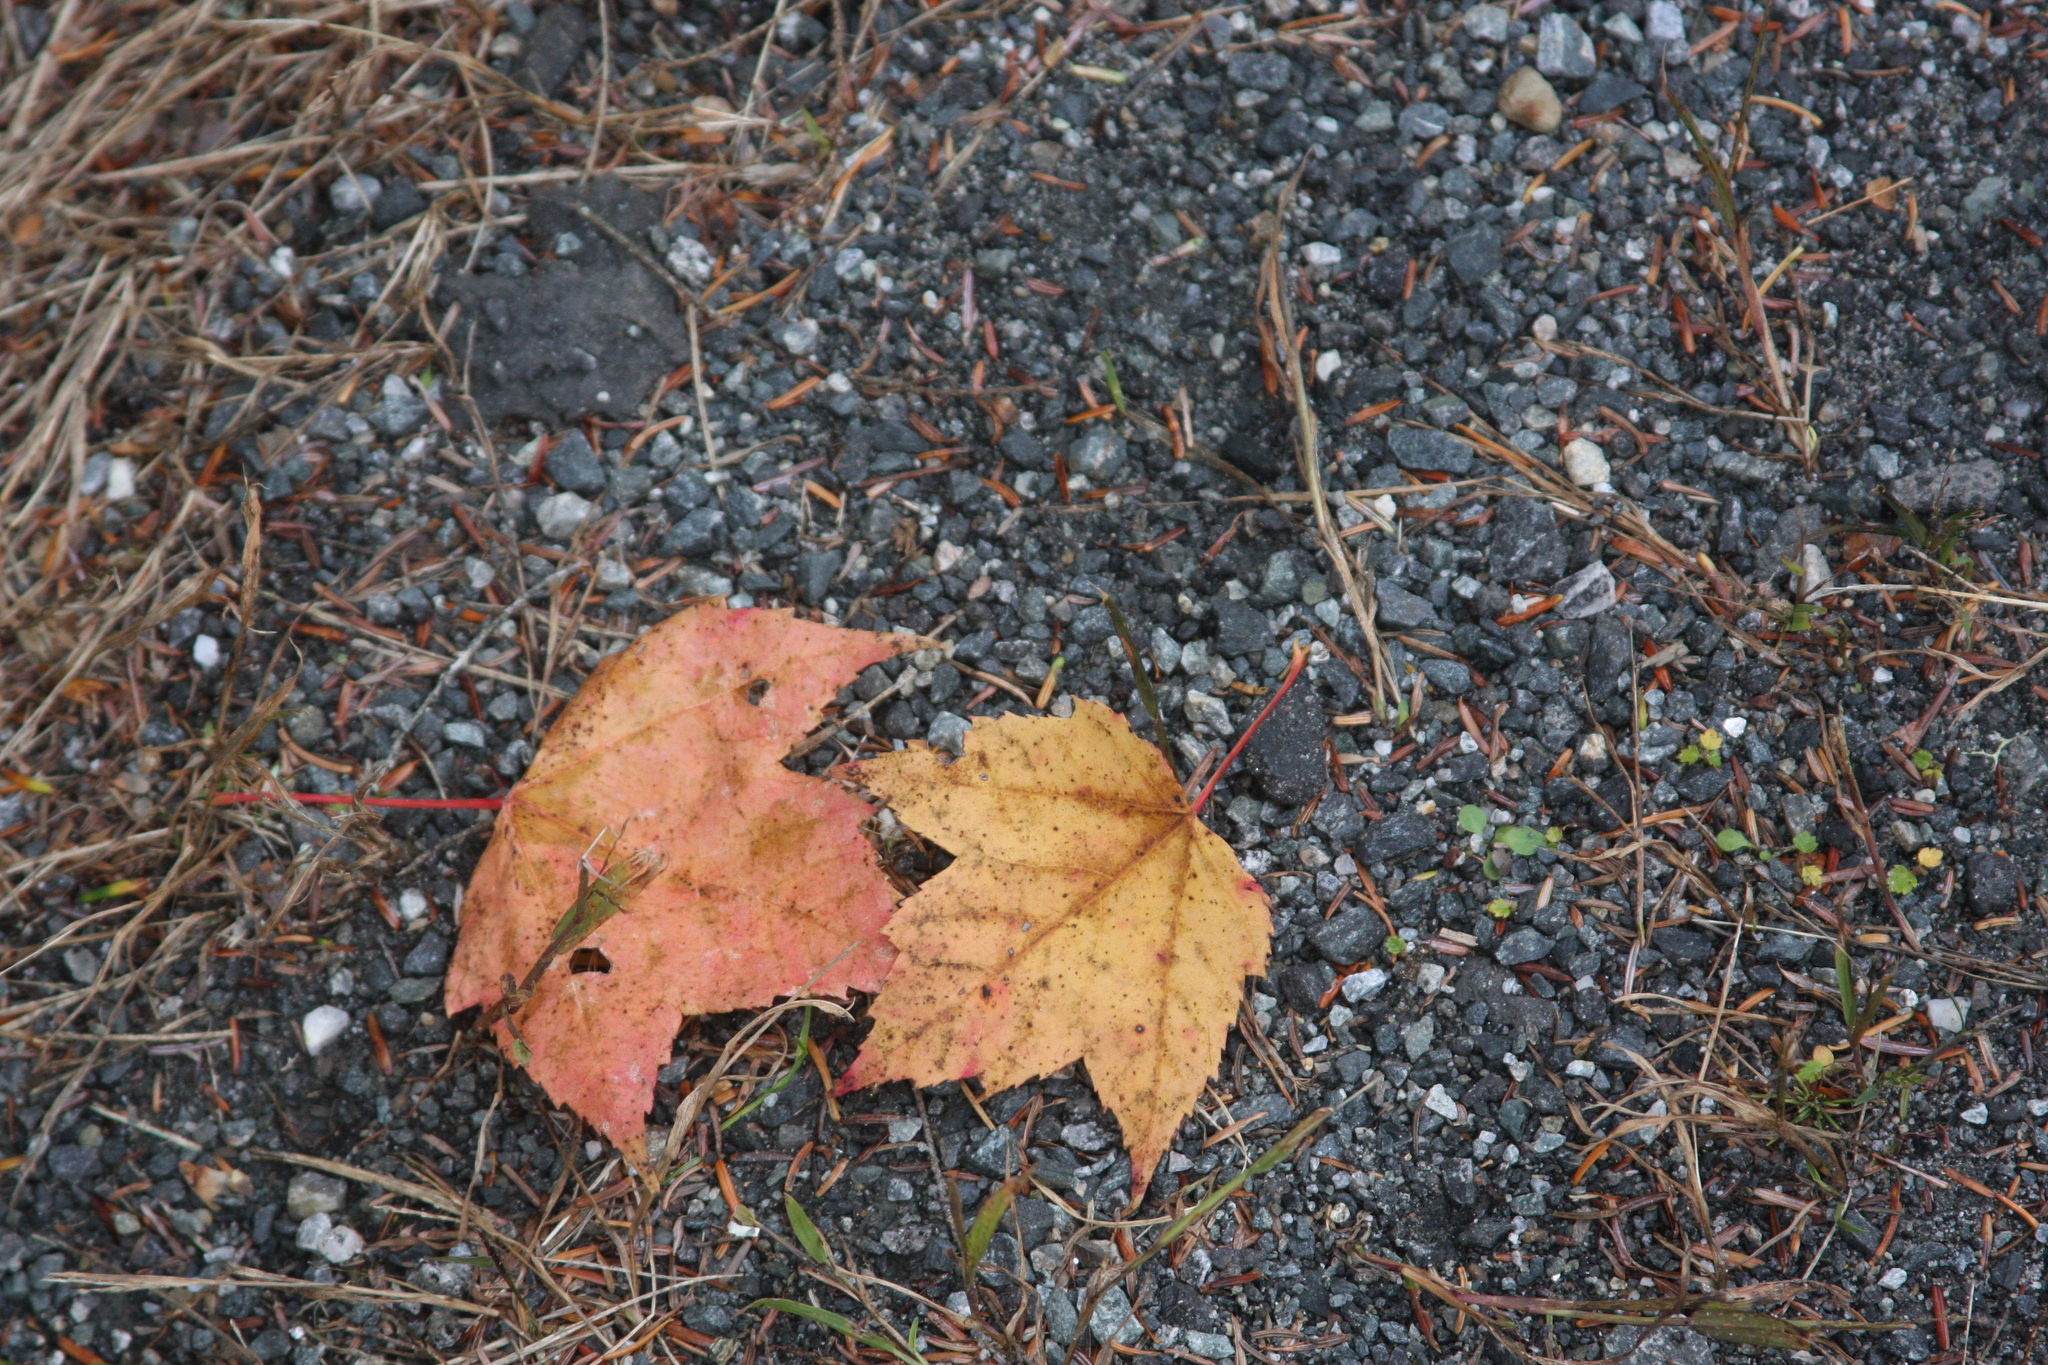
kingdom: Plantae
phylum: Tracheophyta
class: Magnoliopsida
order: Sapindales
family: Sapindaceae
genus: Acer
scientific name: Acer rubrum
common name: Red maple
